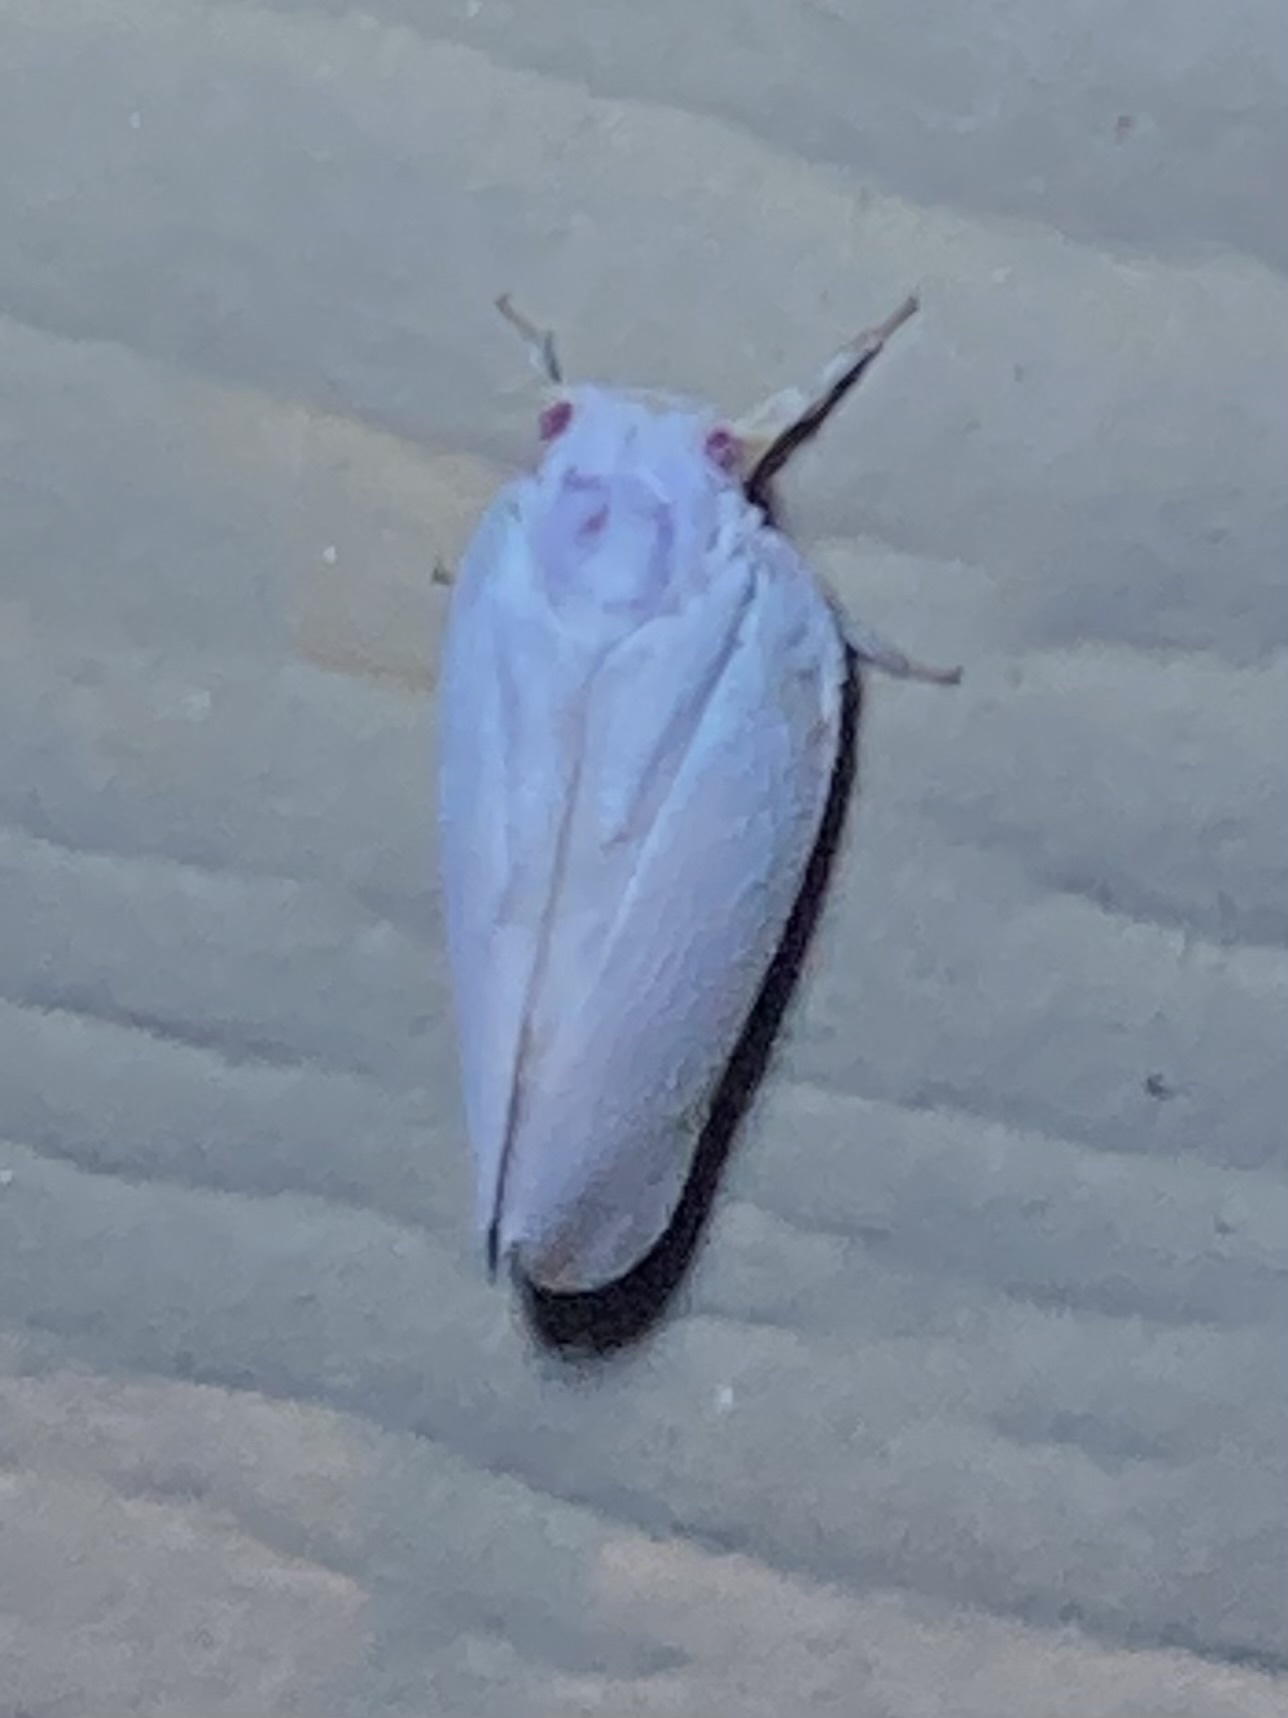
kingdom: Animalia
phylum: Arthropoda
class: Insecta
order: Hemiptera
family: Flatidae
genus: Flatormenis
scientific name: Flatormenis saucia
